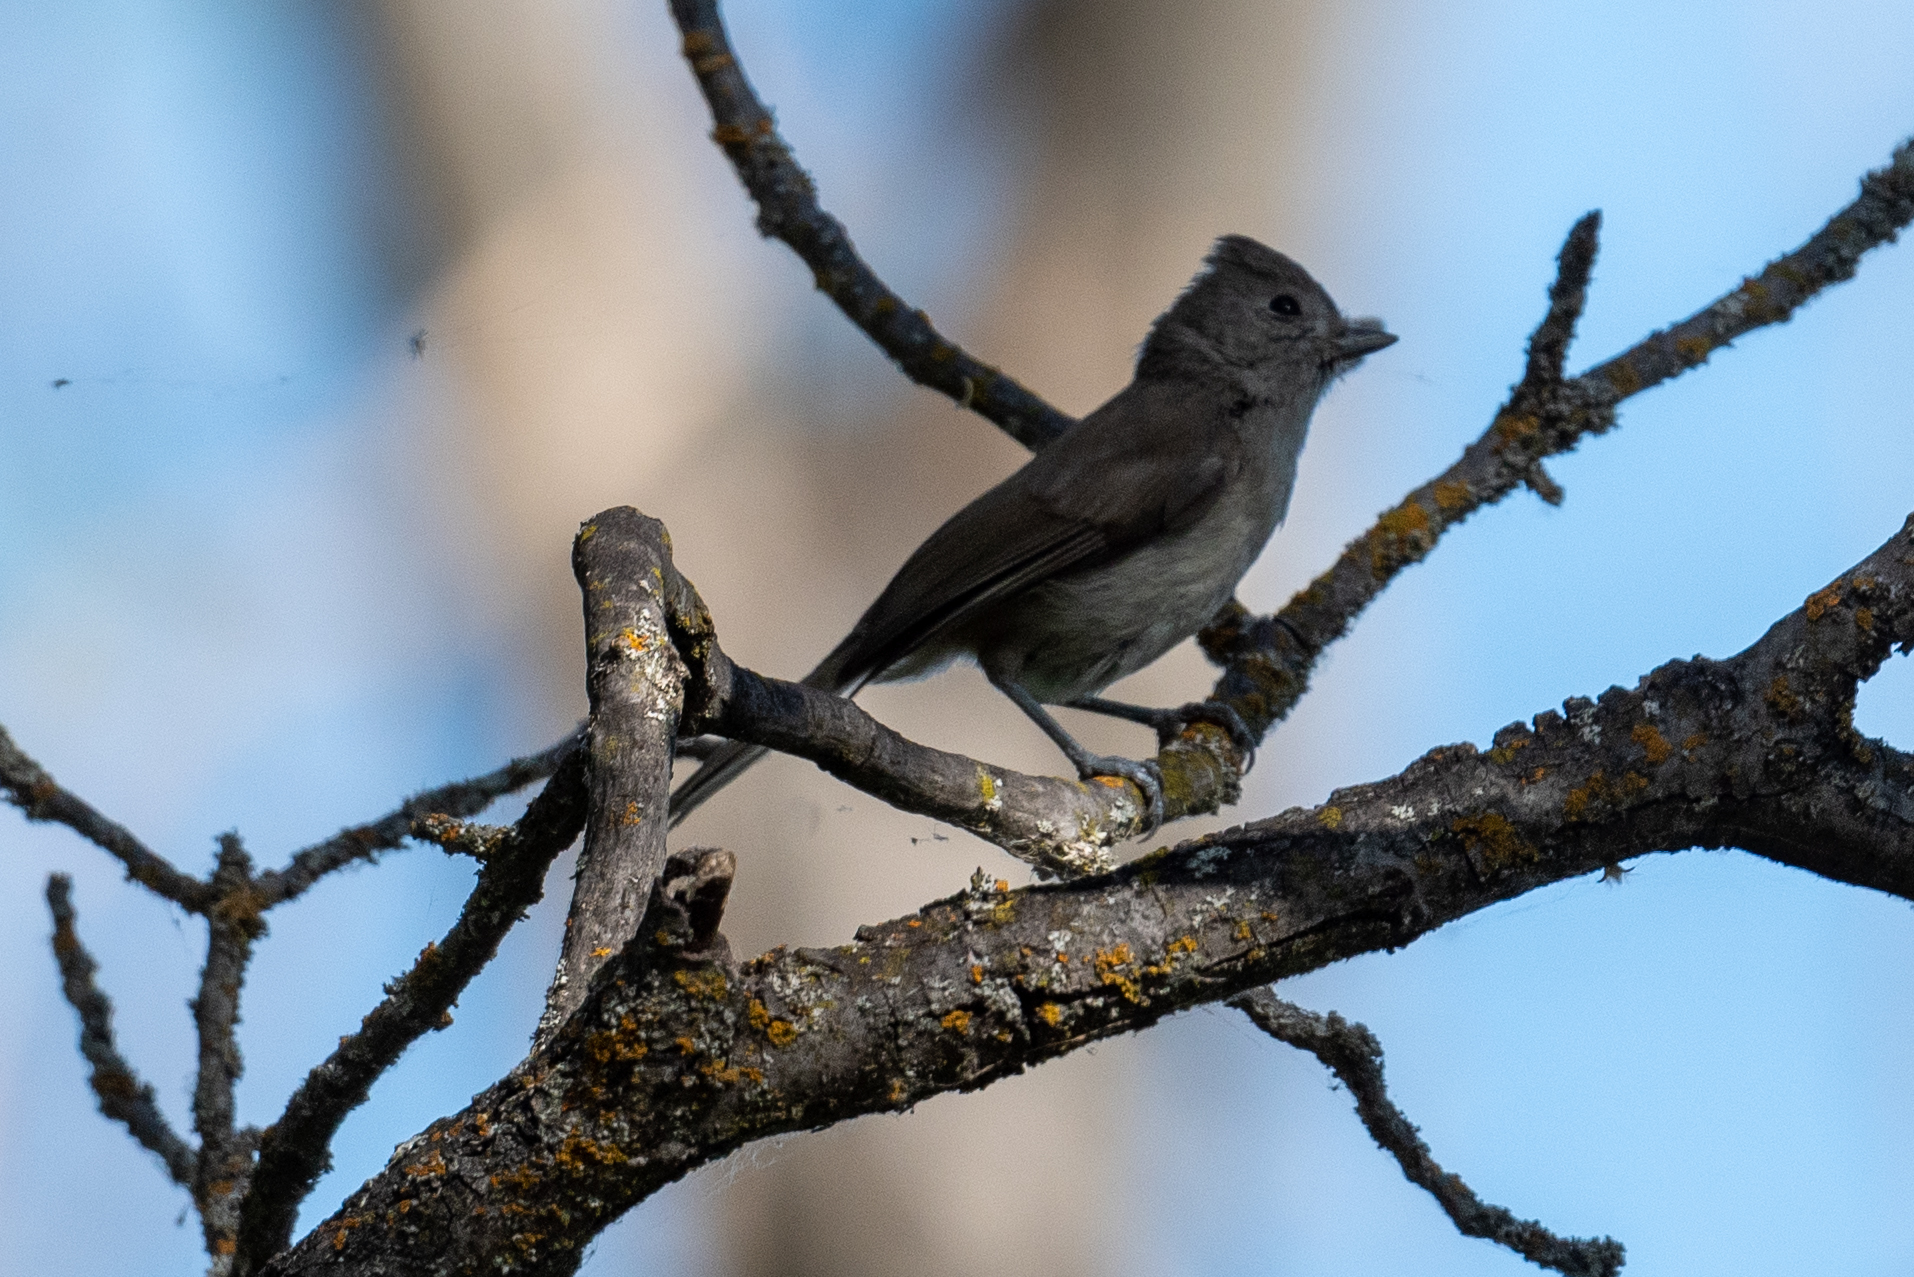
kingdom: Animalia
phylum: Chordata
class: Aves
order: Passeriformes
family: Paridae
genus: Baeolophus
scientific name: Baeolophus inornatus
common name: Oak titmouse
